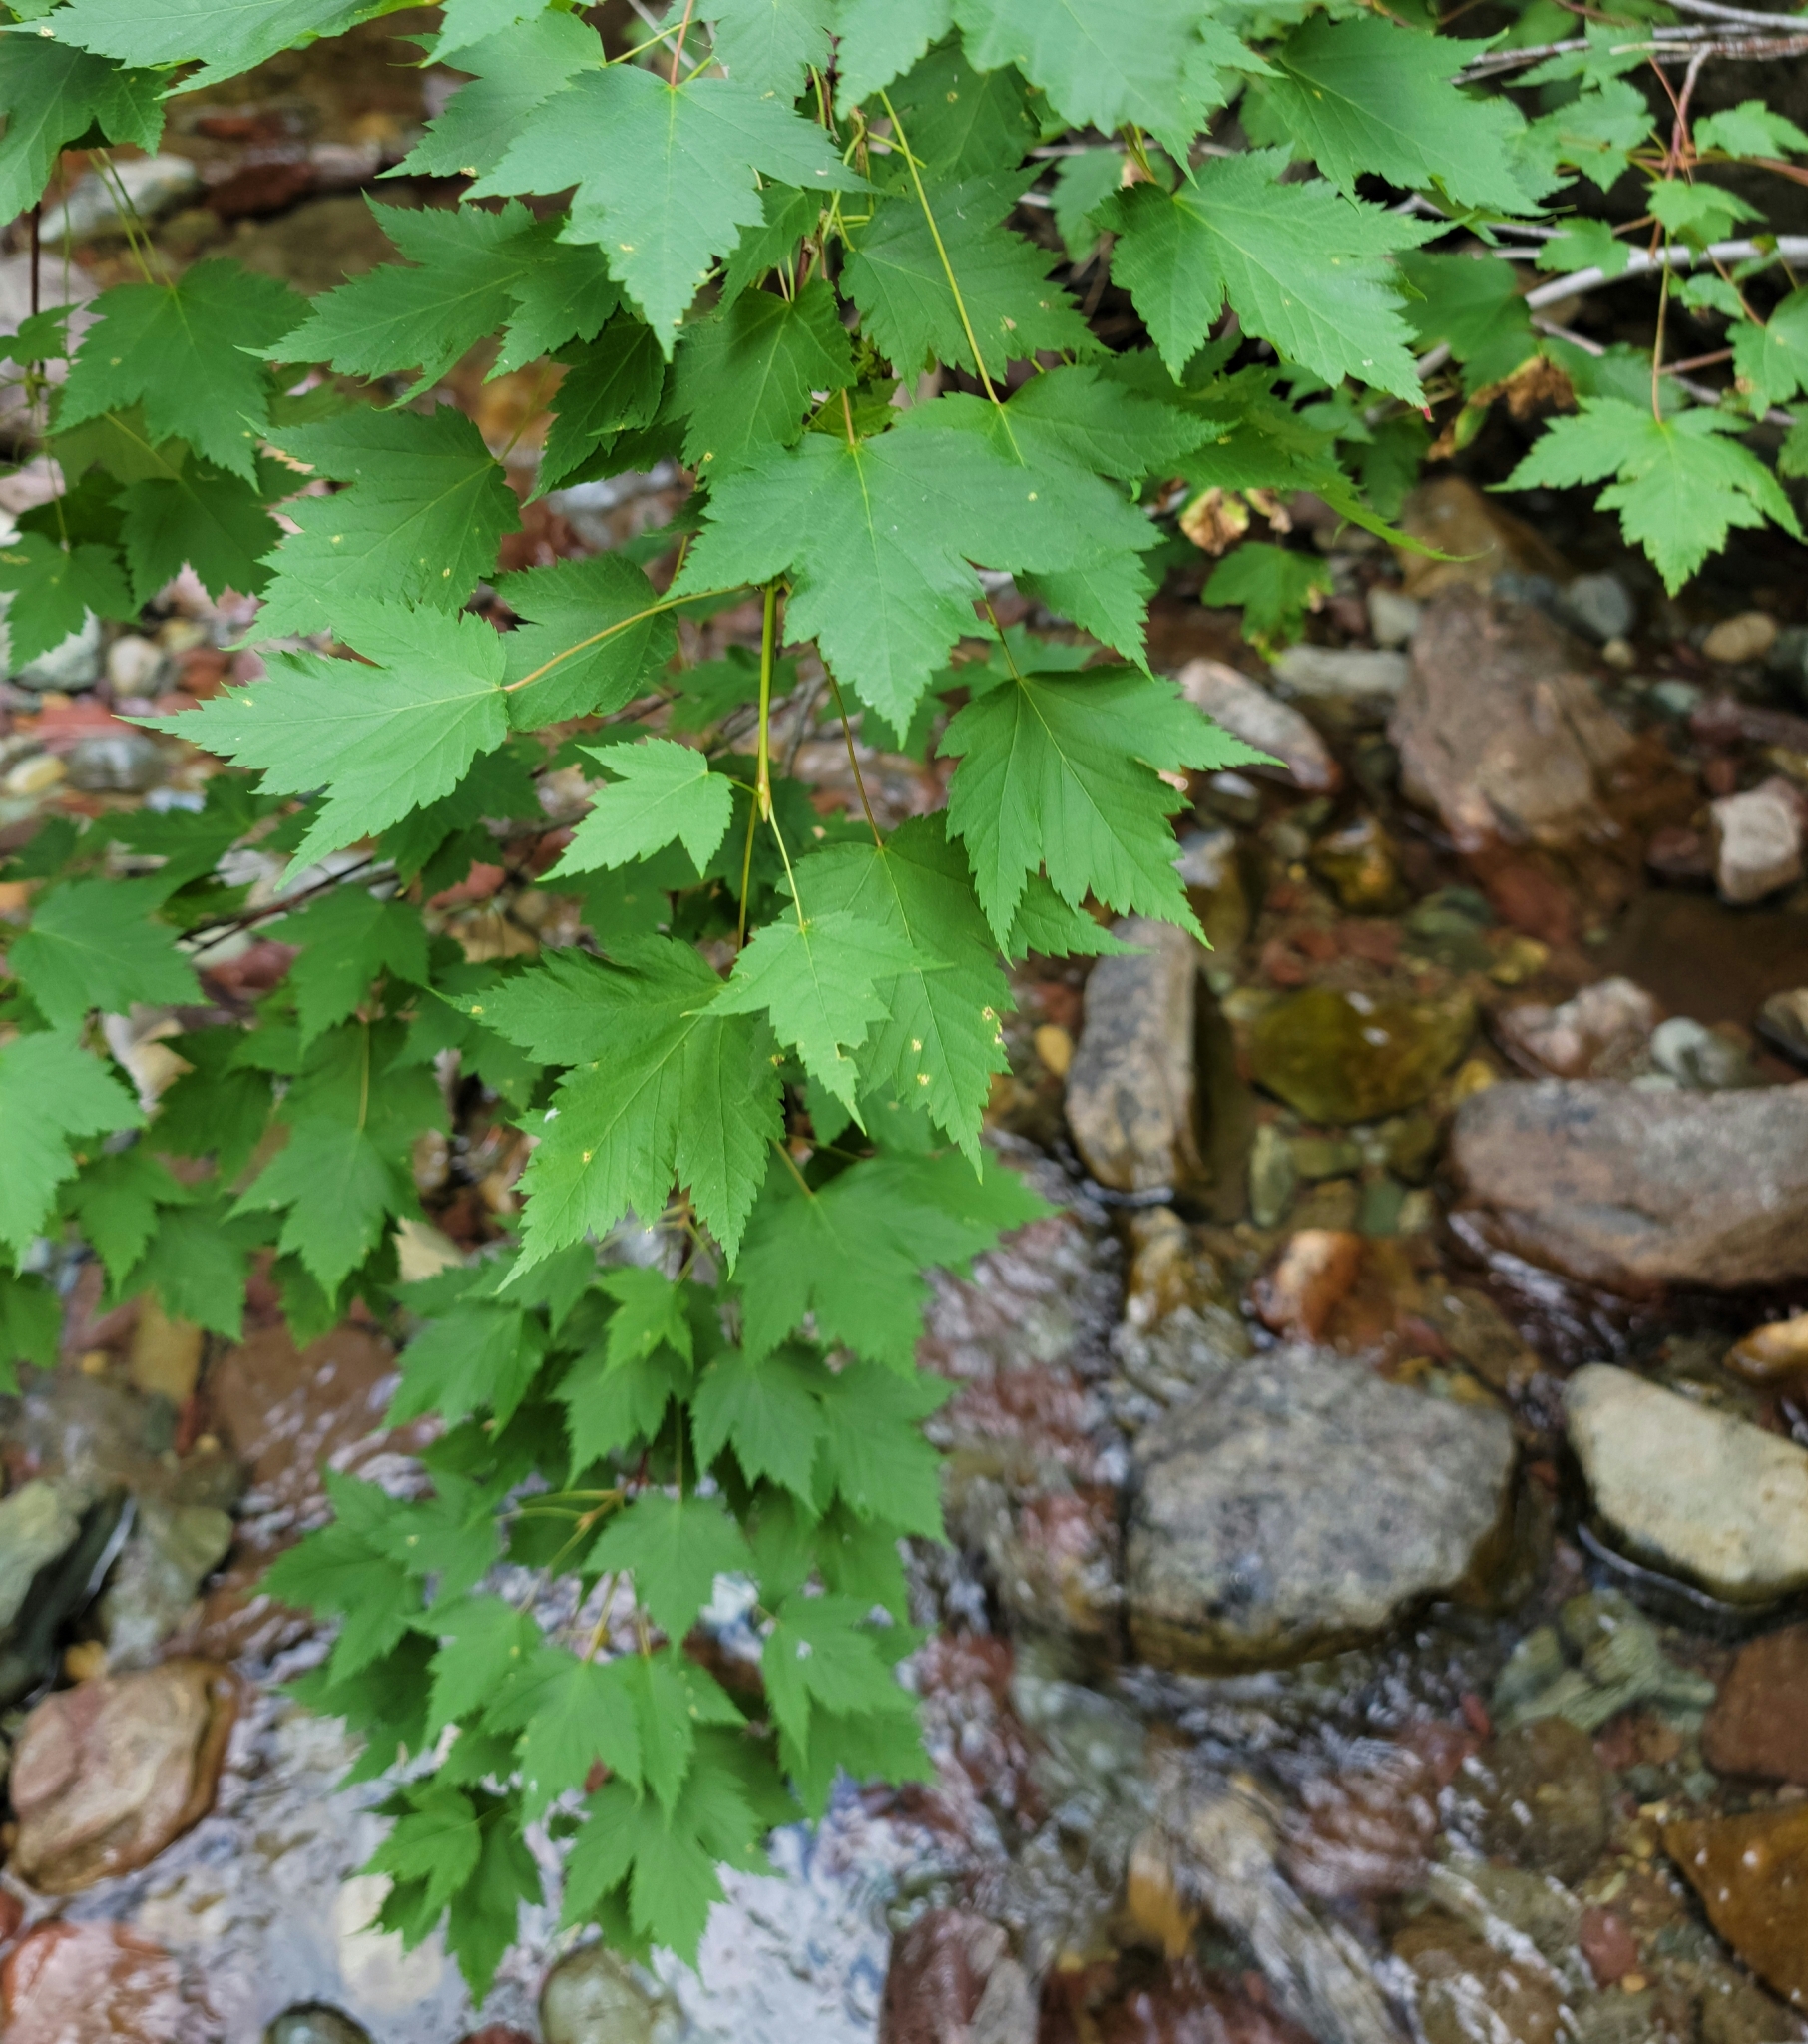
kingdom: Plantae
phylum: Tracheophyta
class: Magnoliopsida
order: Sapindales
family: Sapindaceae
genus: Acer
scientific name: Acer glabrum
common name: Rocky mountain maple
